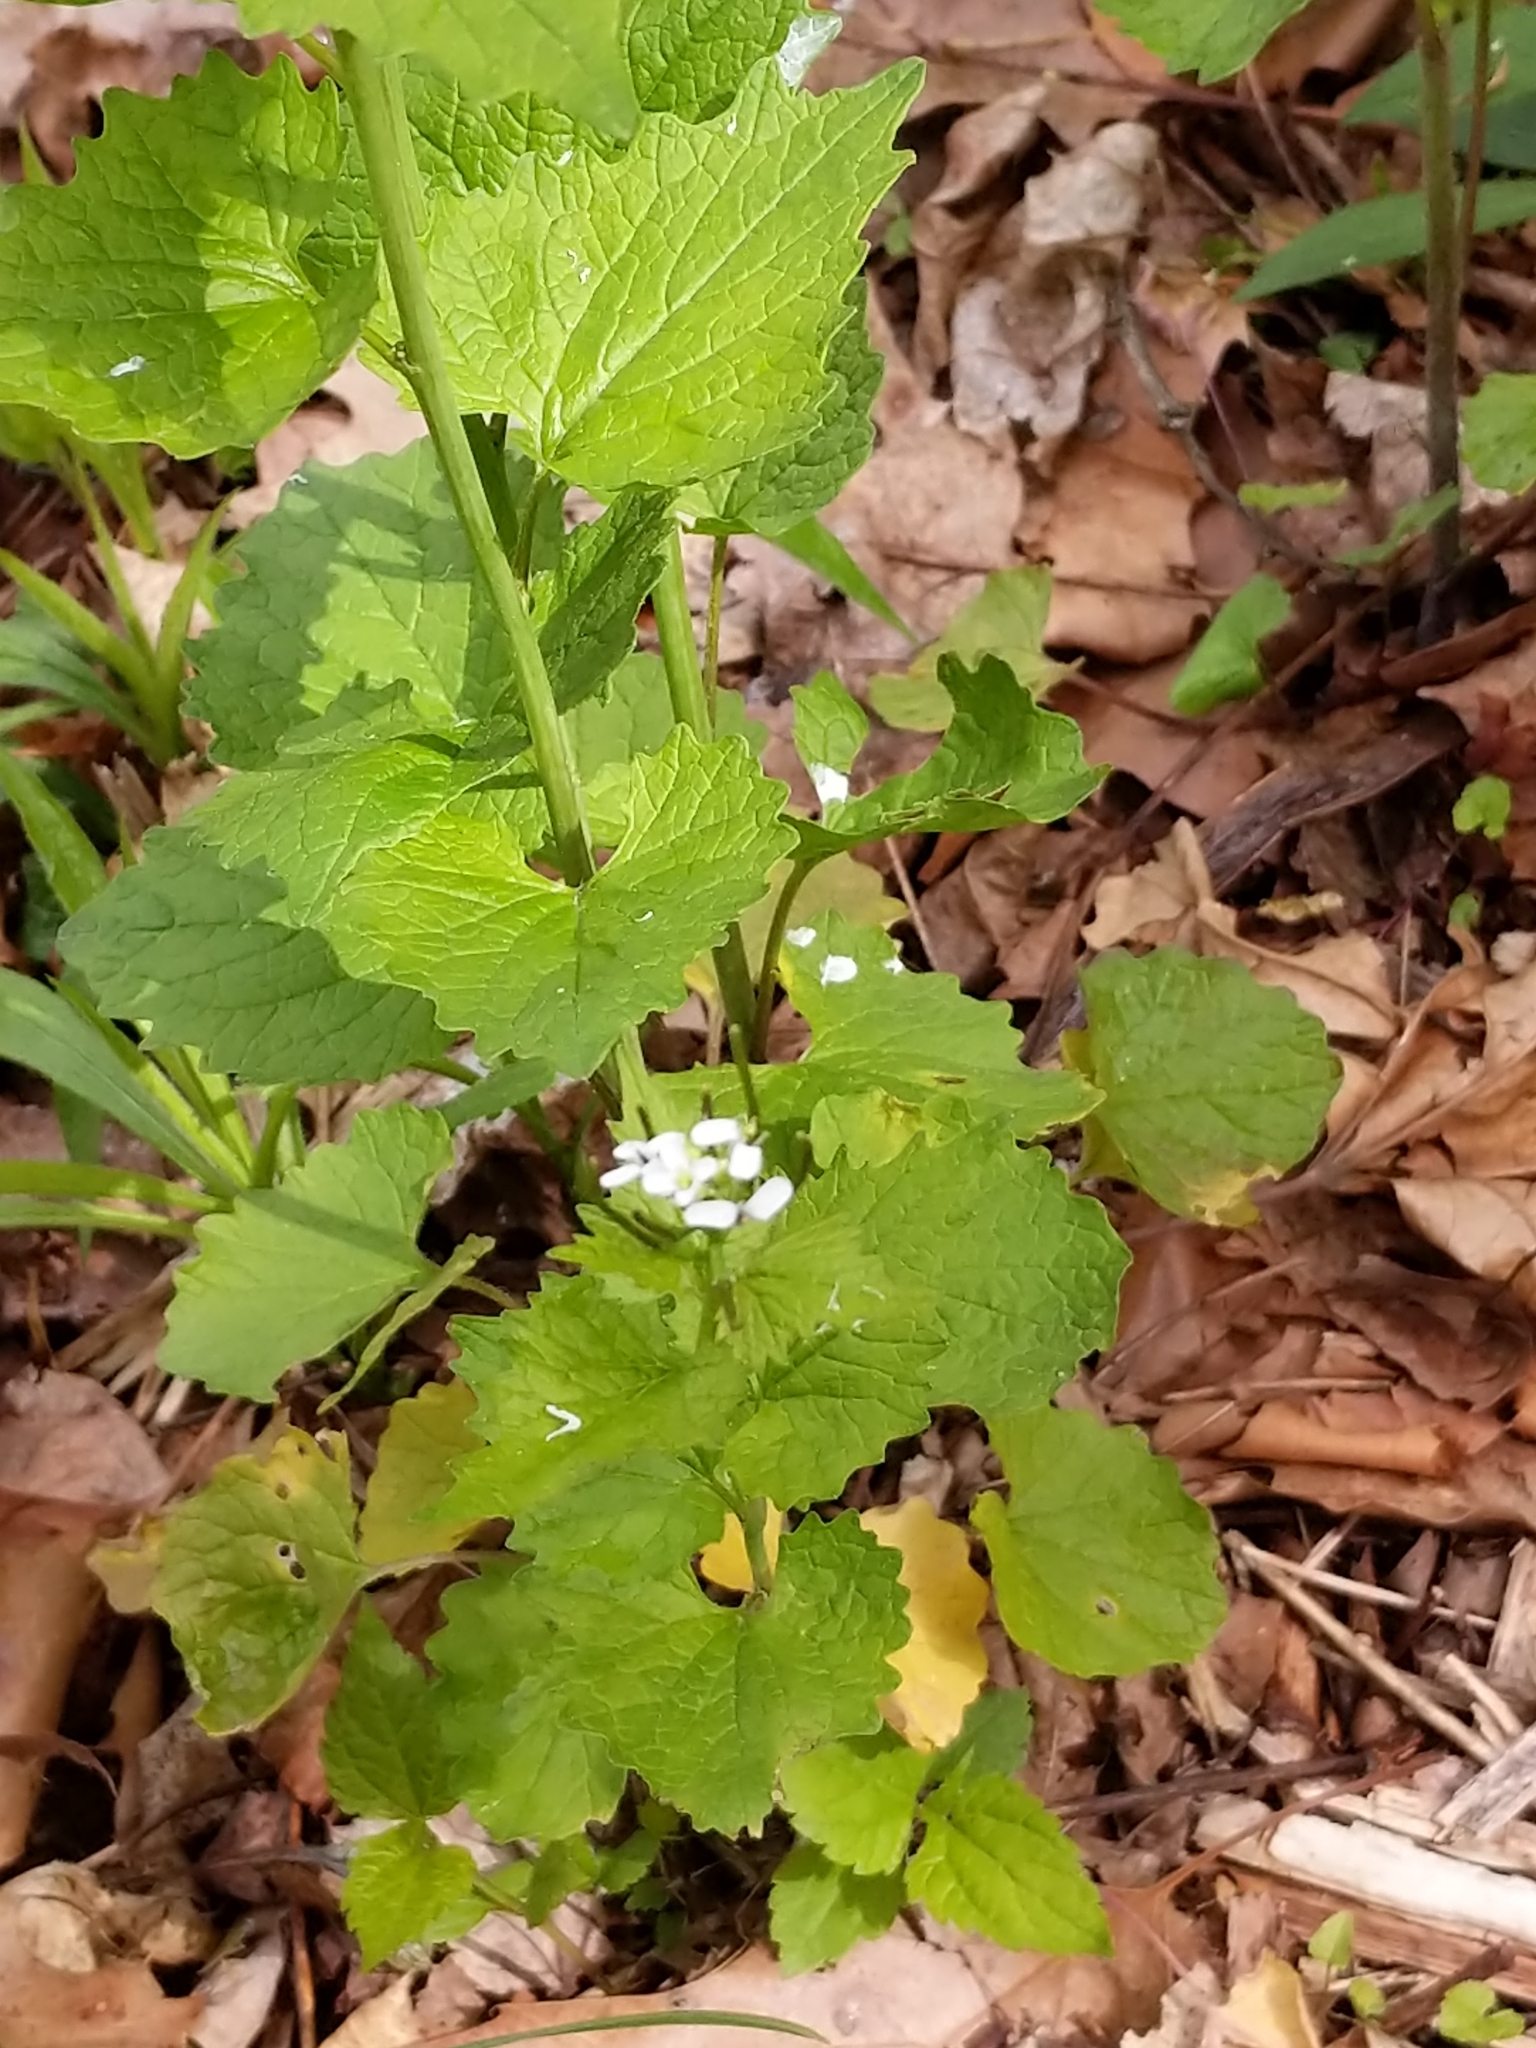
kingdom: Plantae
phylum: Tracheophyta
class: Magnoliopsida
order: Brassicales
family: Brassicaceae
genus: Alliaria
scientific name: Alliaria petiolata
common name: Garlic mustard
